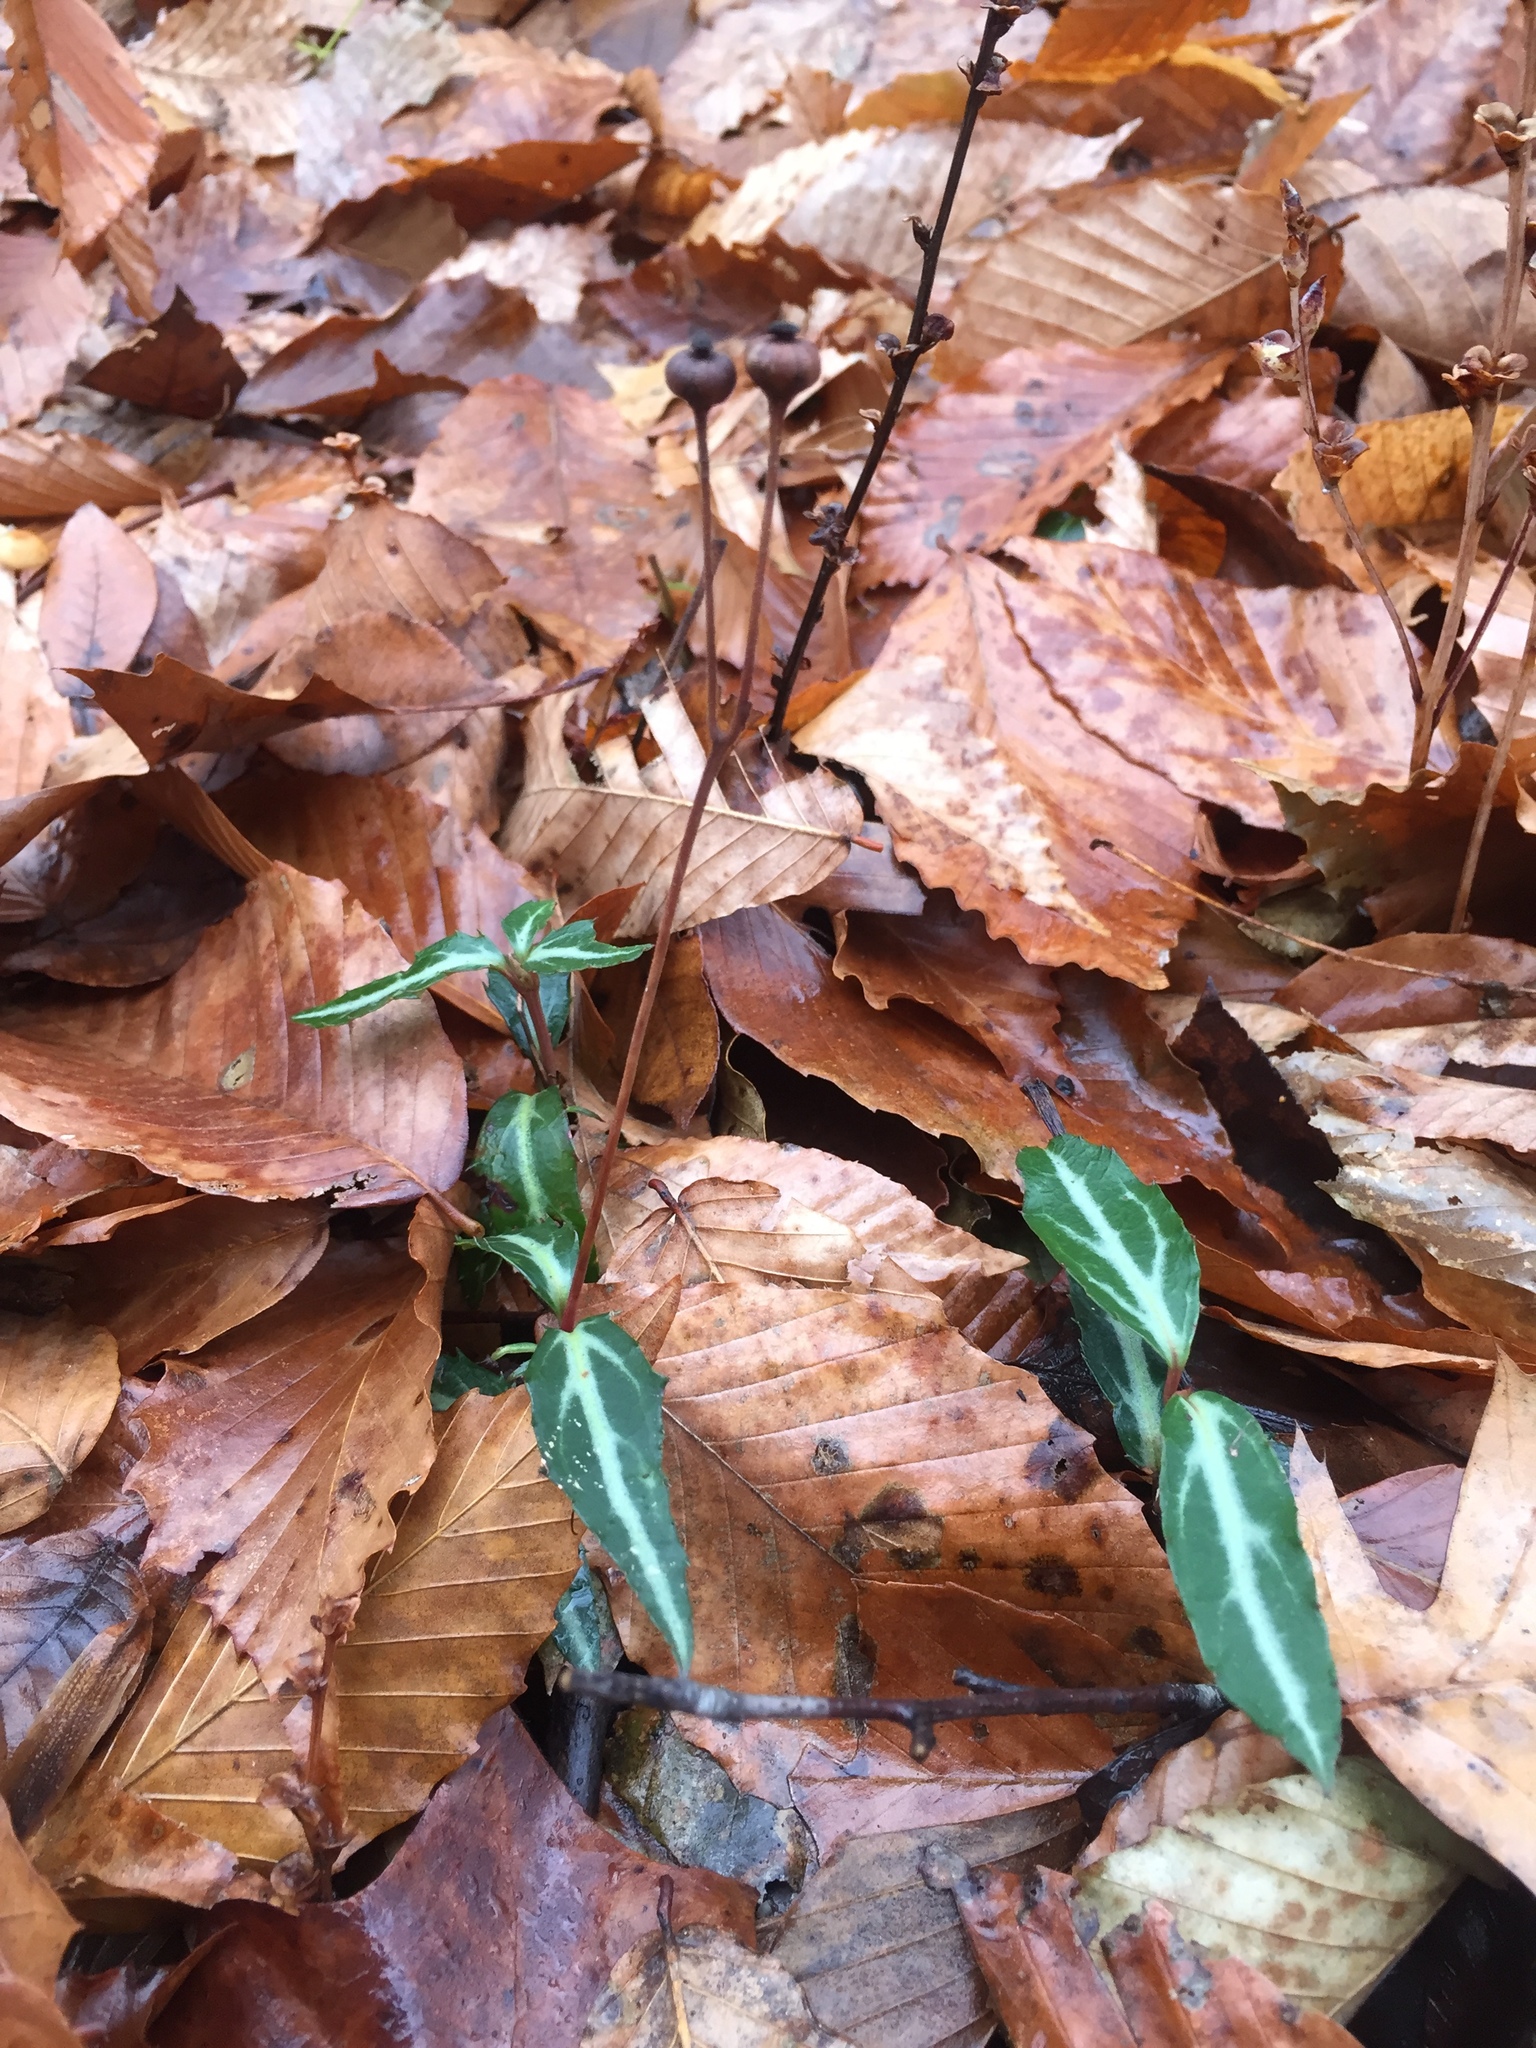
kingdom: Plantae
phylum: Tracheophyta
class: Magnoliopsida
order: Ericales
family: Ericaceae
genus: Chimaphila
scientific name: Chimaphila maculata
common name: Spotted pipsissewa
